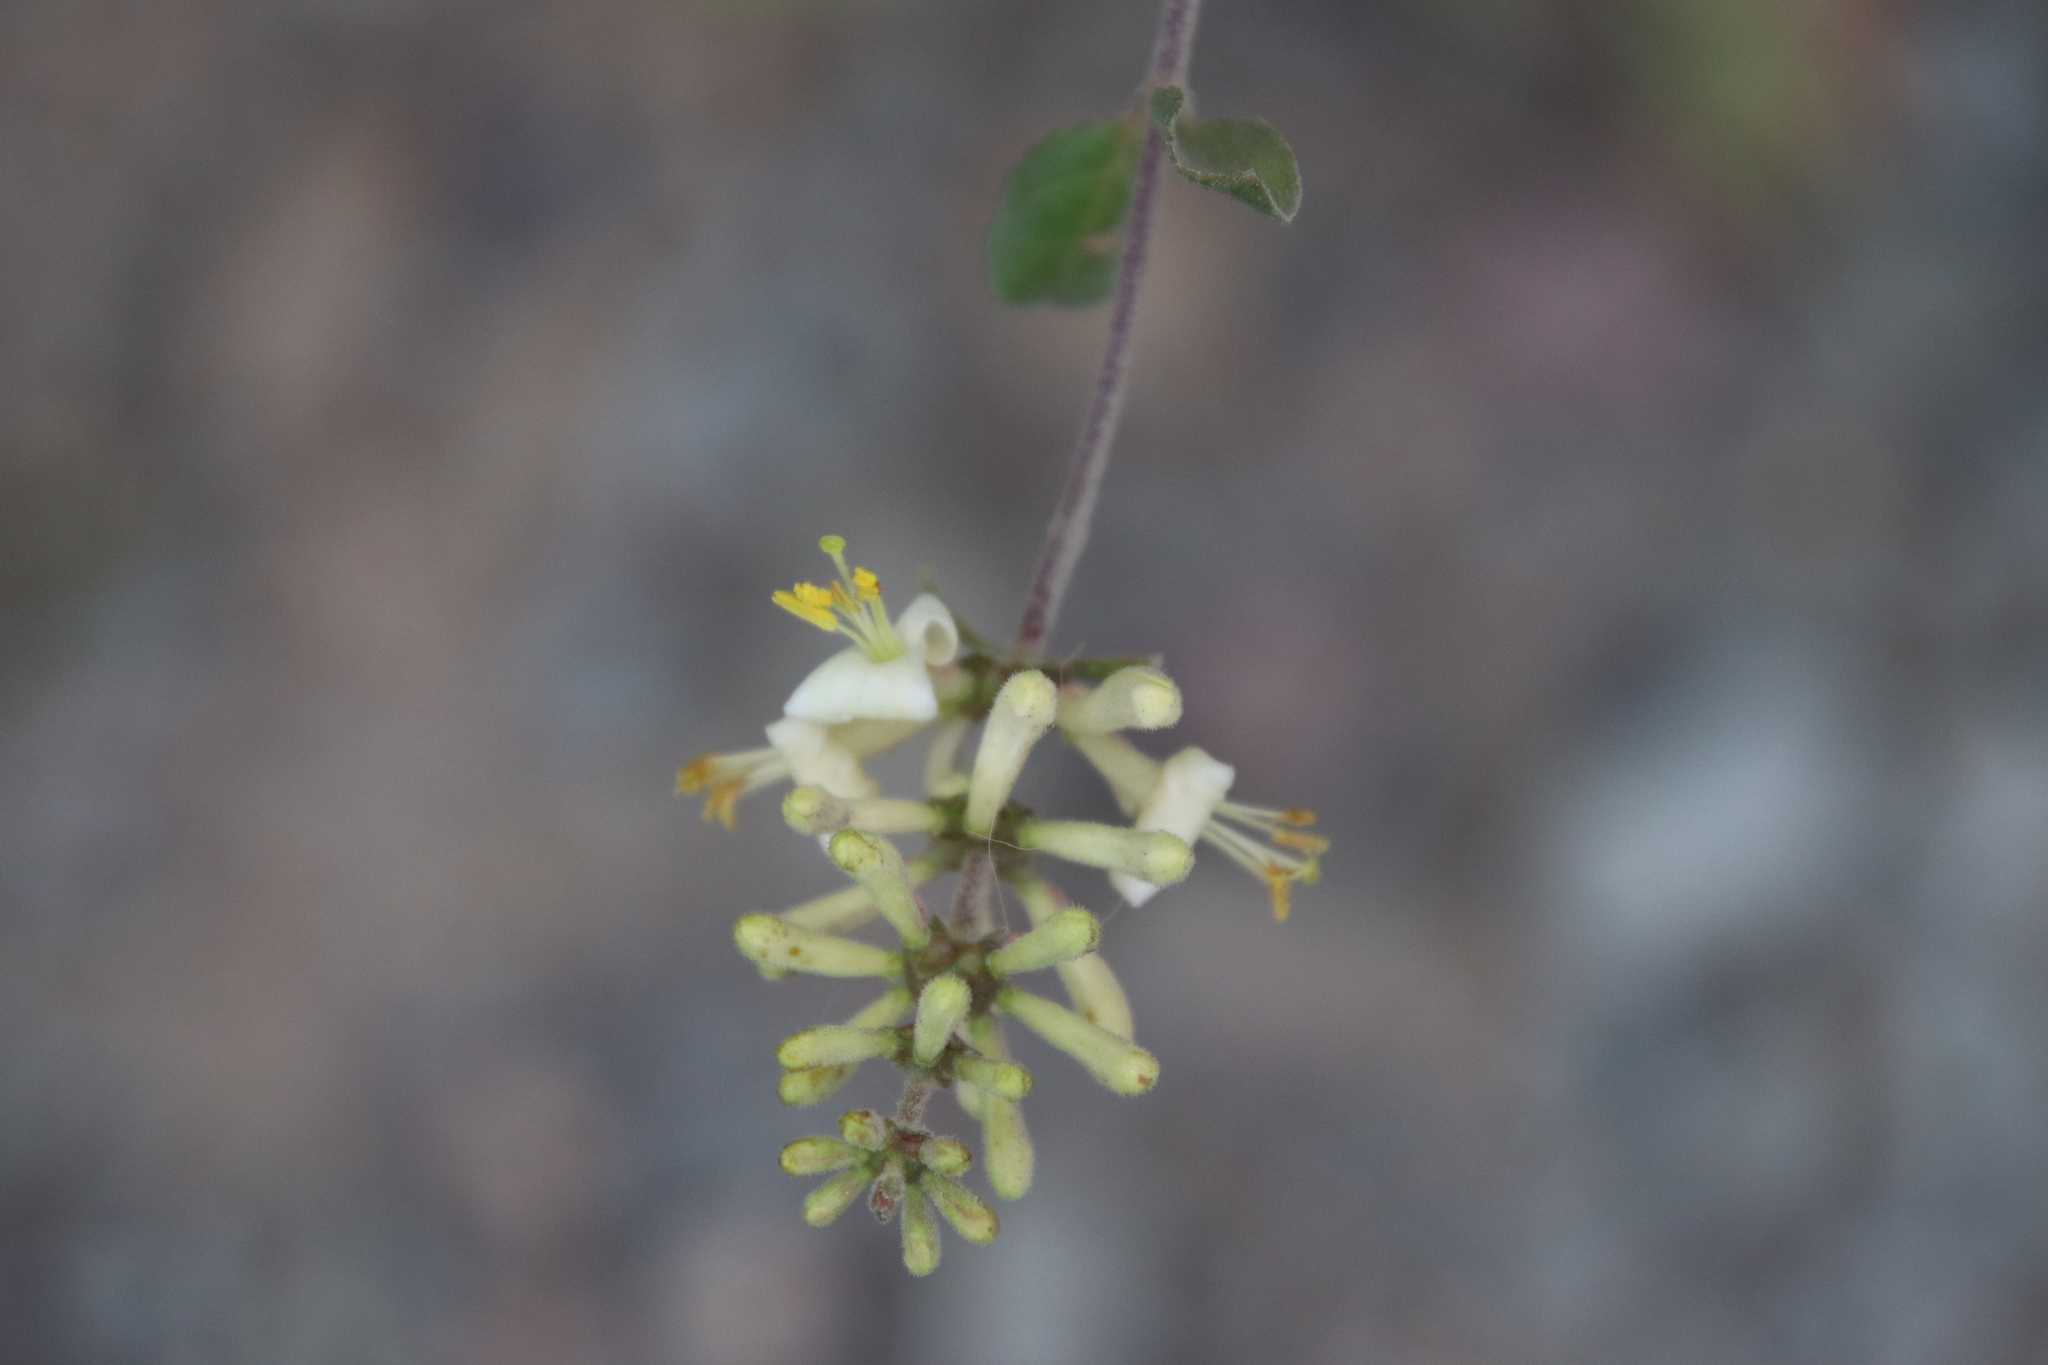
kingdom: Plantae
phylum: Tracheophyta
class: Magnoliopsida
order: Dipsacales
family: Caprifoliaceae
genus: Lonicera
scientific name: Lonicera subspicata
